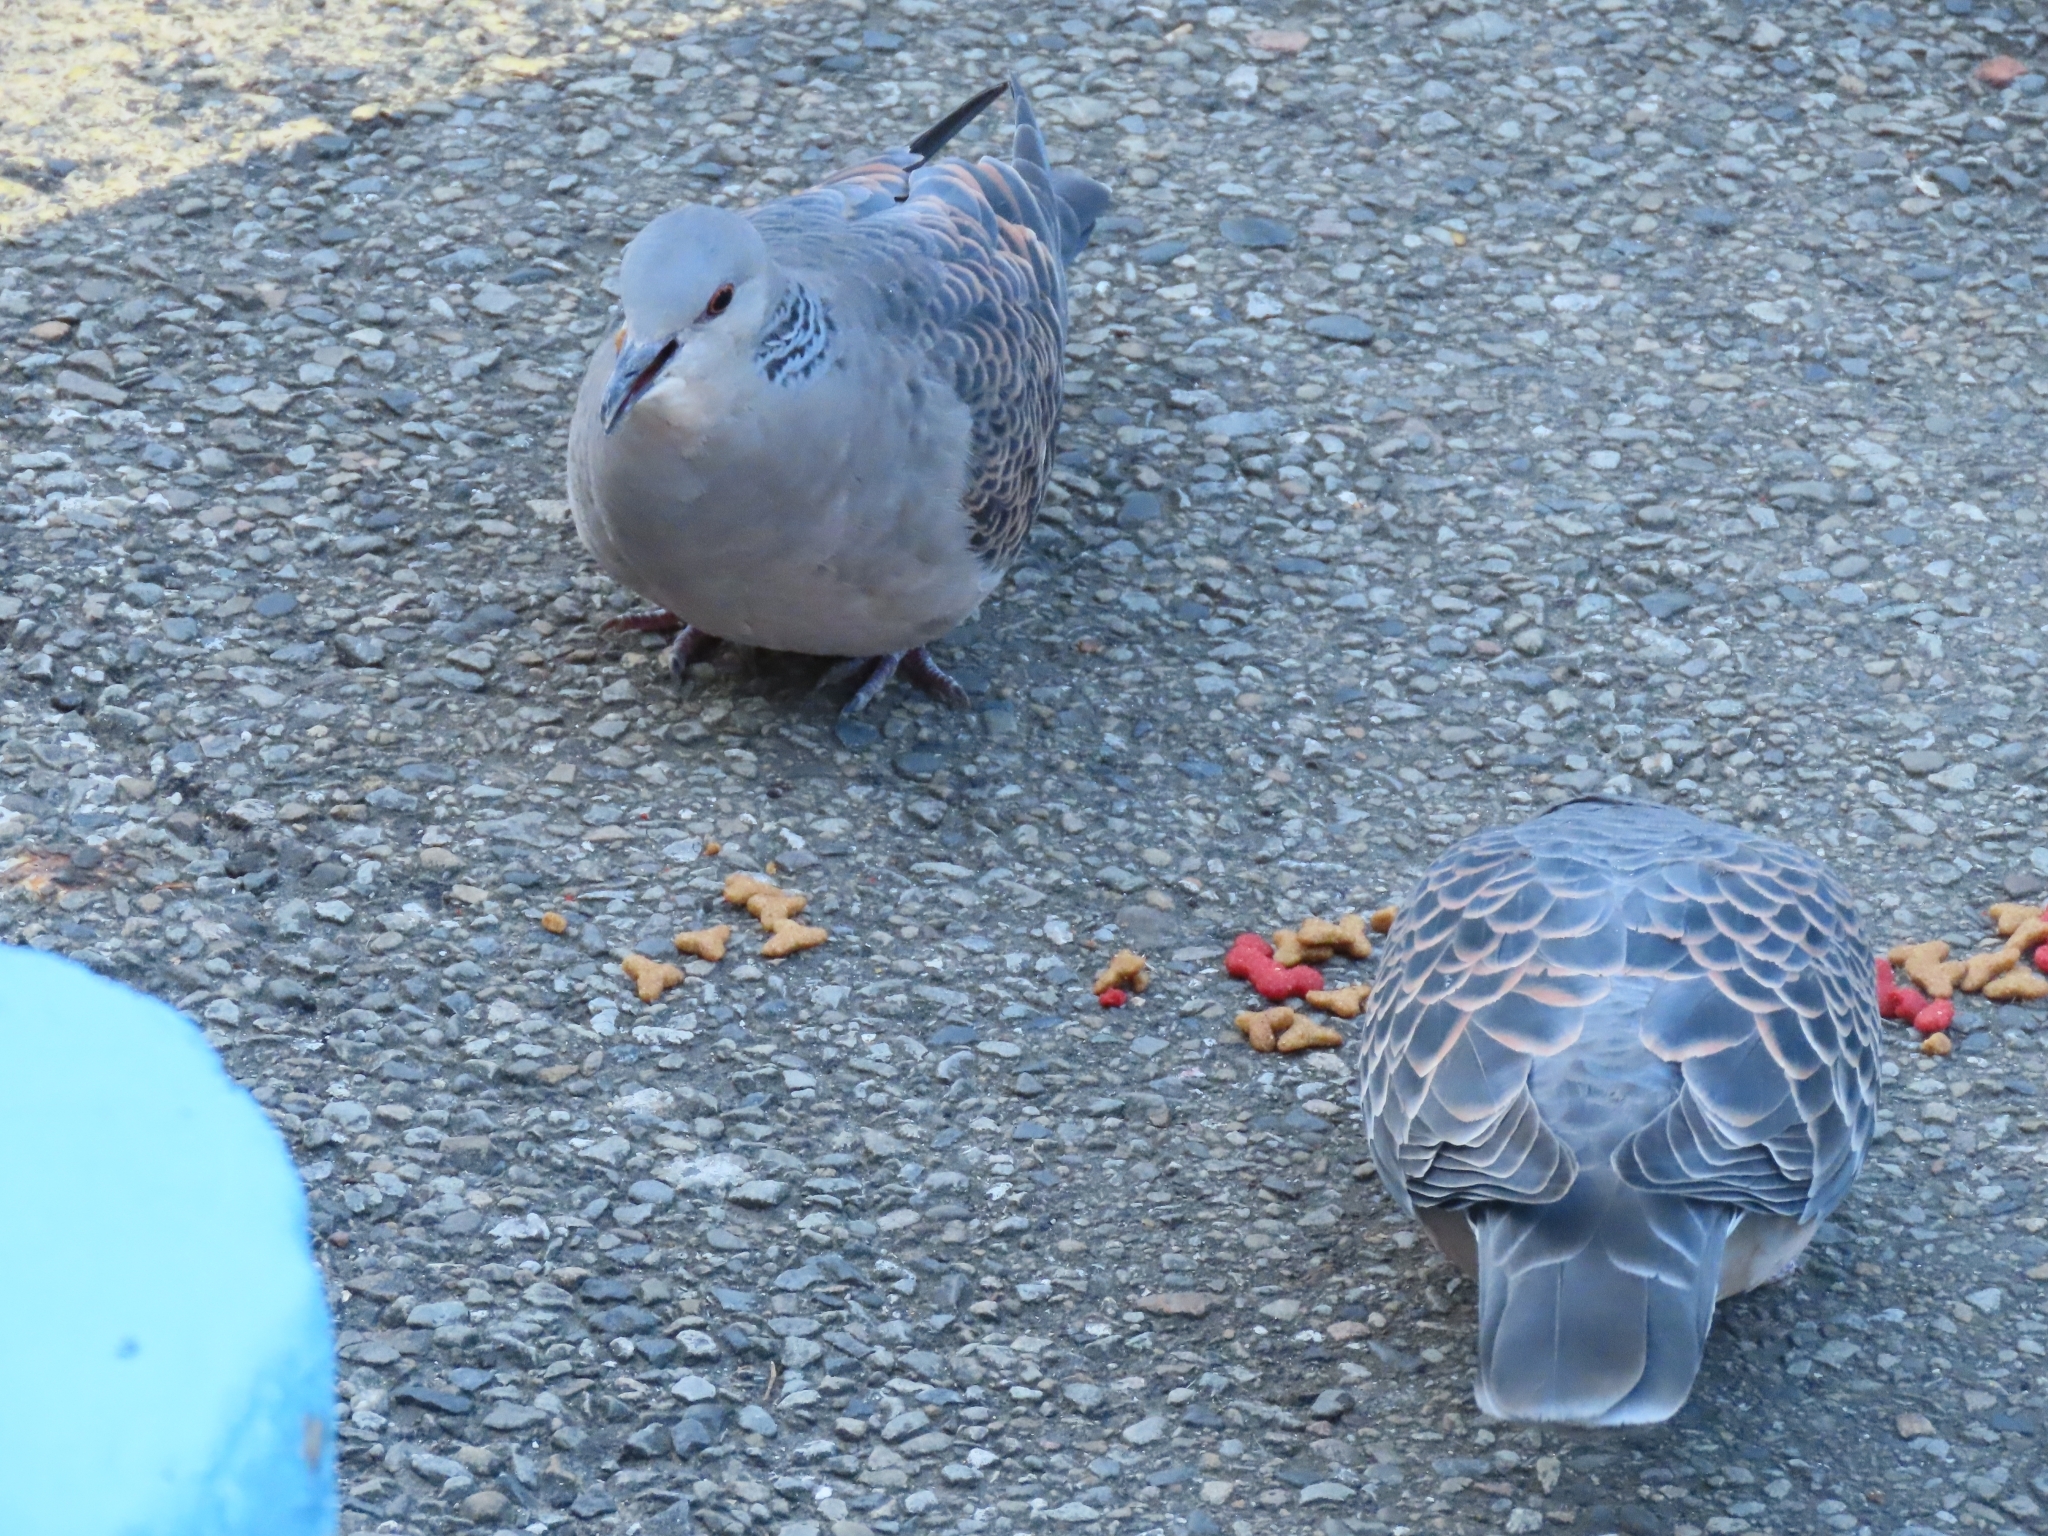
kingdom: Animalia
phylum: Chordata
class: Aves
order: Columbiformes
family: Columbidae
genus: Streptopelia
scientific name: Streptopelia orientalis
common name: Oriental turtle dove
